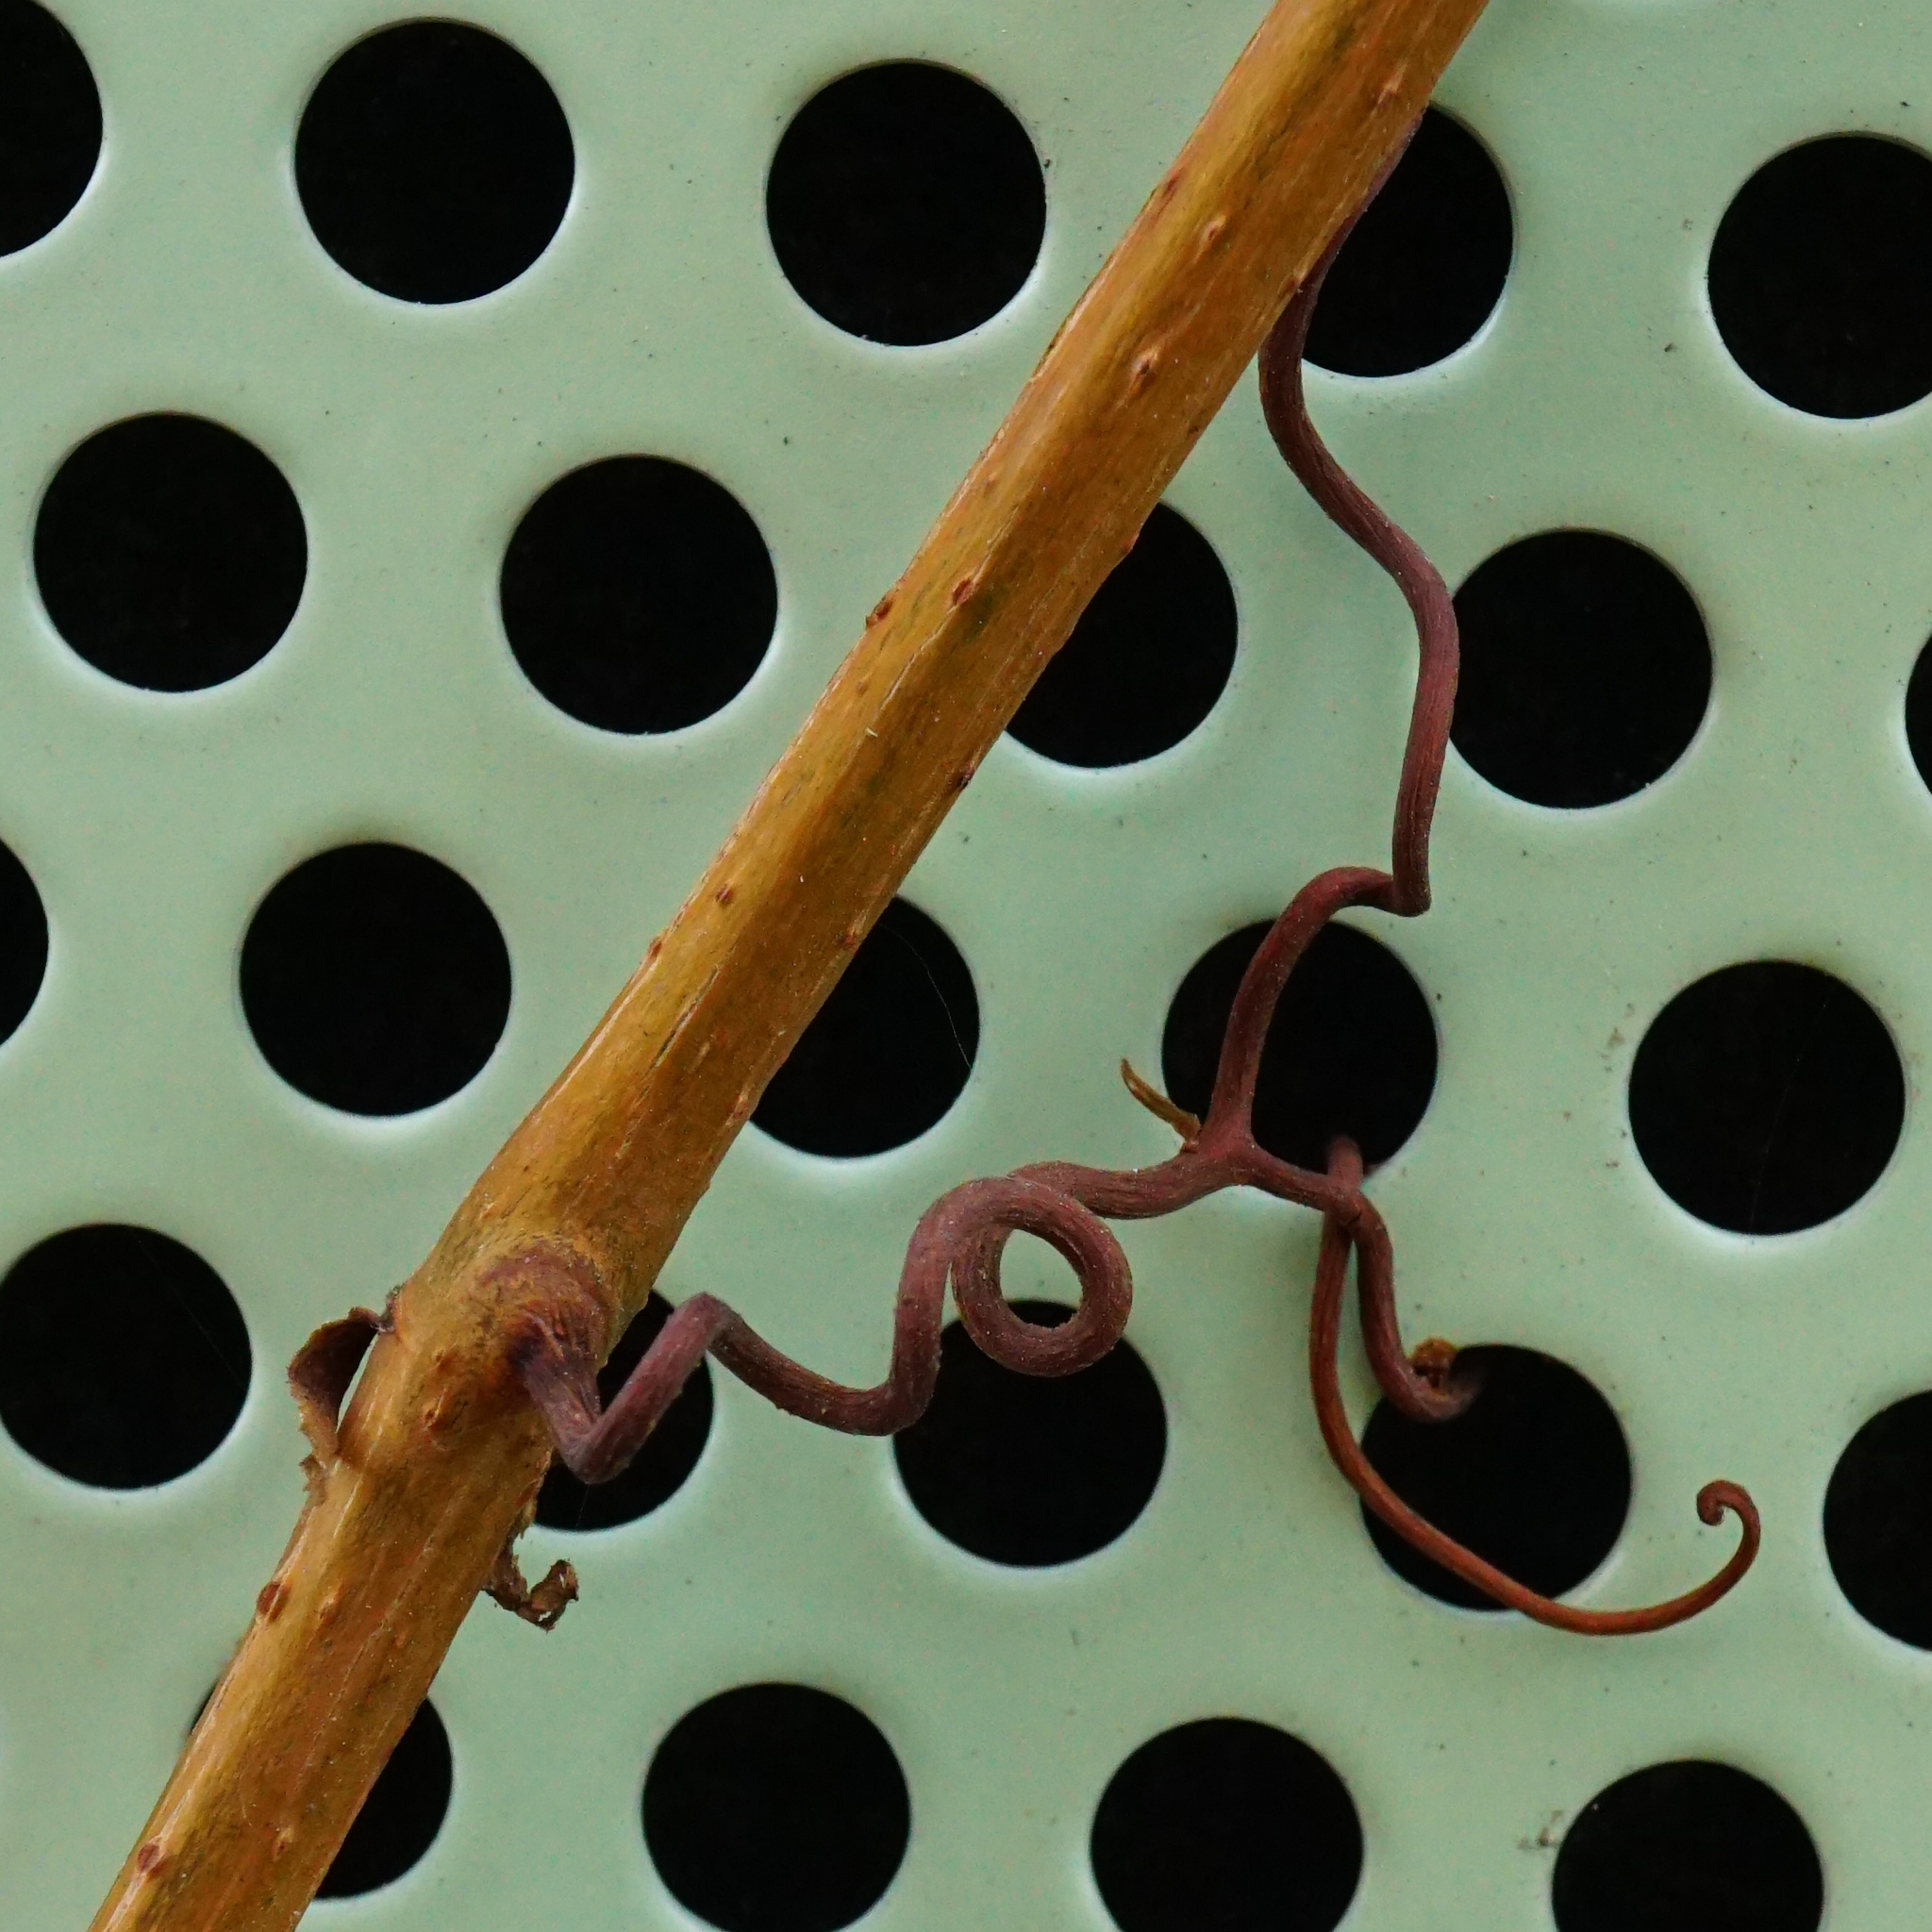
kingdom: Plantae
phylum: Tracheophyta
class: Magnoliopsida
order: Vitales
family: Vitaceae
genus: Parthenocissus
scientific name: Parthenocissus quinquefolia
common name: Virginia-creeper
